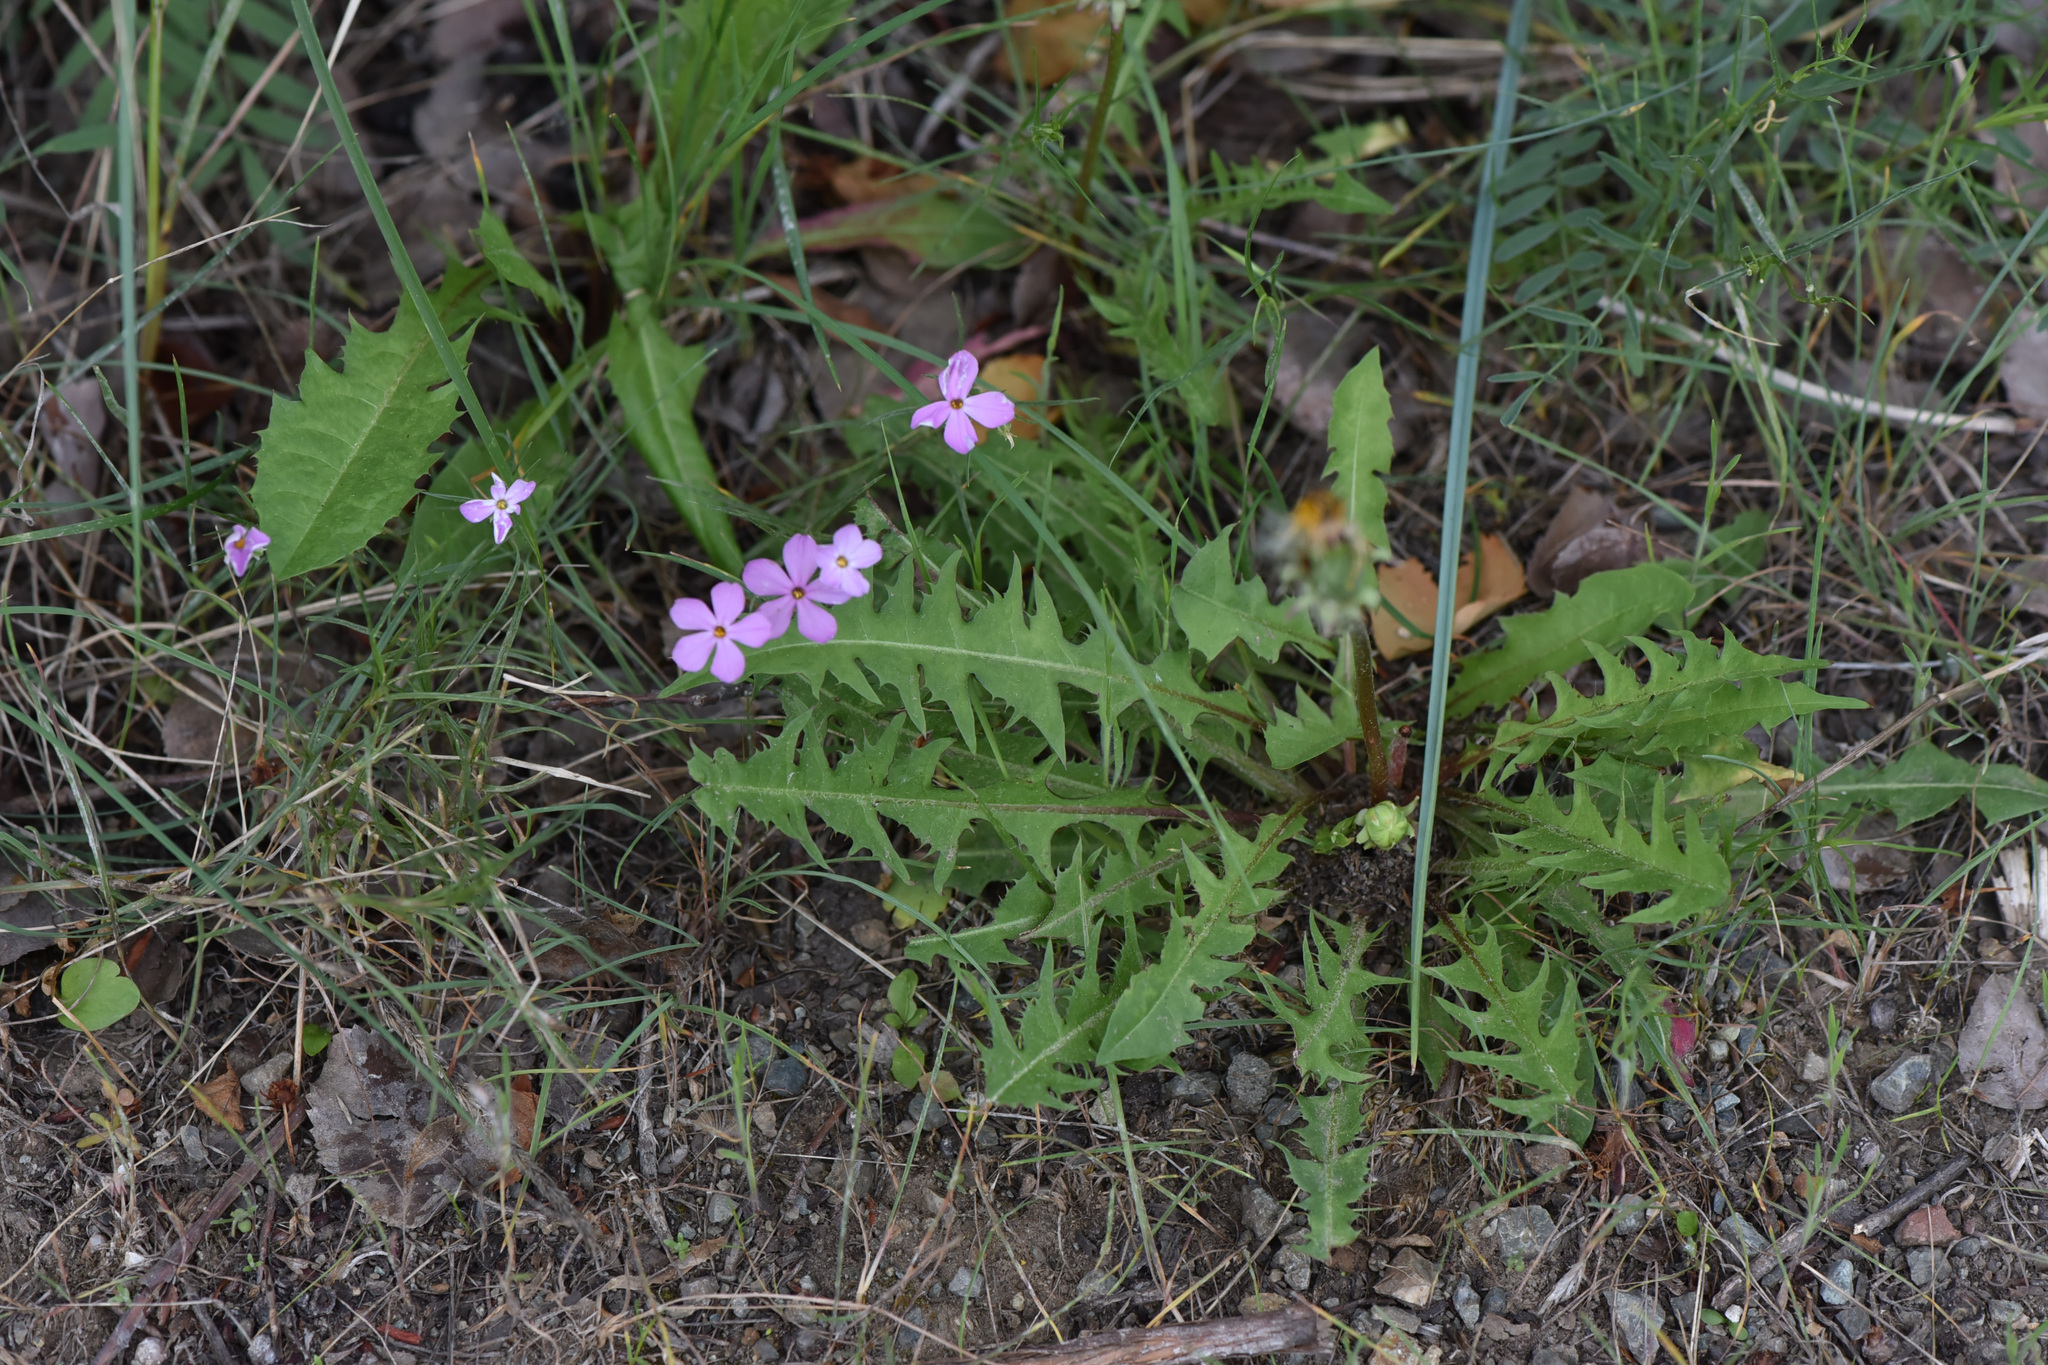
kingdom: Plantae
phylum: Tracheophyta
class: Magnoliopsida
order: Asterales
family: Asteraceae
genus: Taraxacum
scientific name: Taraxacum
